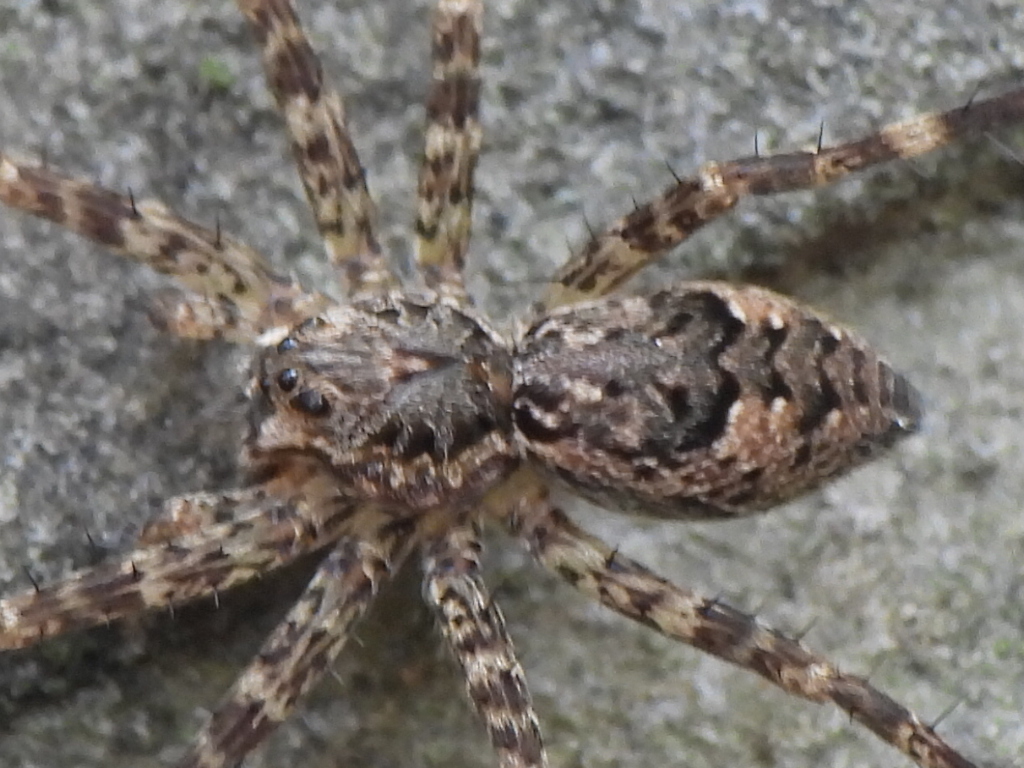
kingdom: Animalia
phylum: Arthropoda
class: Arachnida
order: Araneae
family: Pisauridae
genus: Dolomedes
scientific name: Dolomedes tenebrosus
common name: Dark fishing spider
